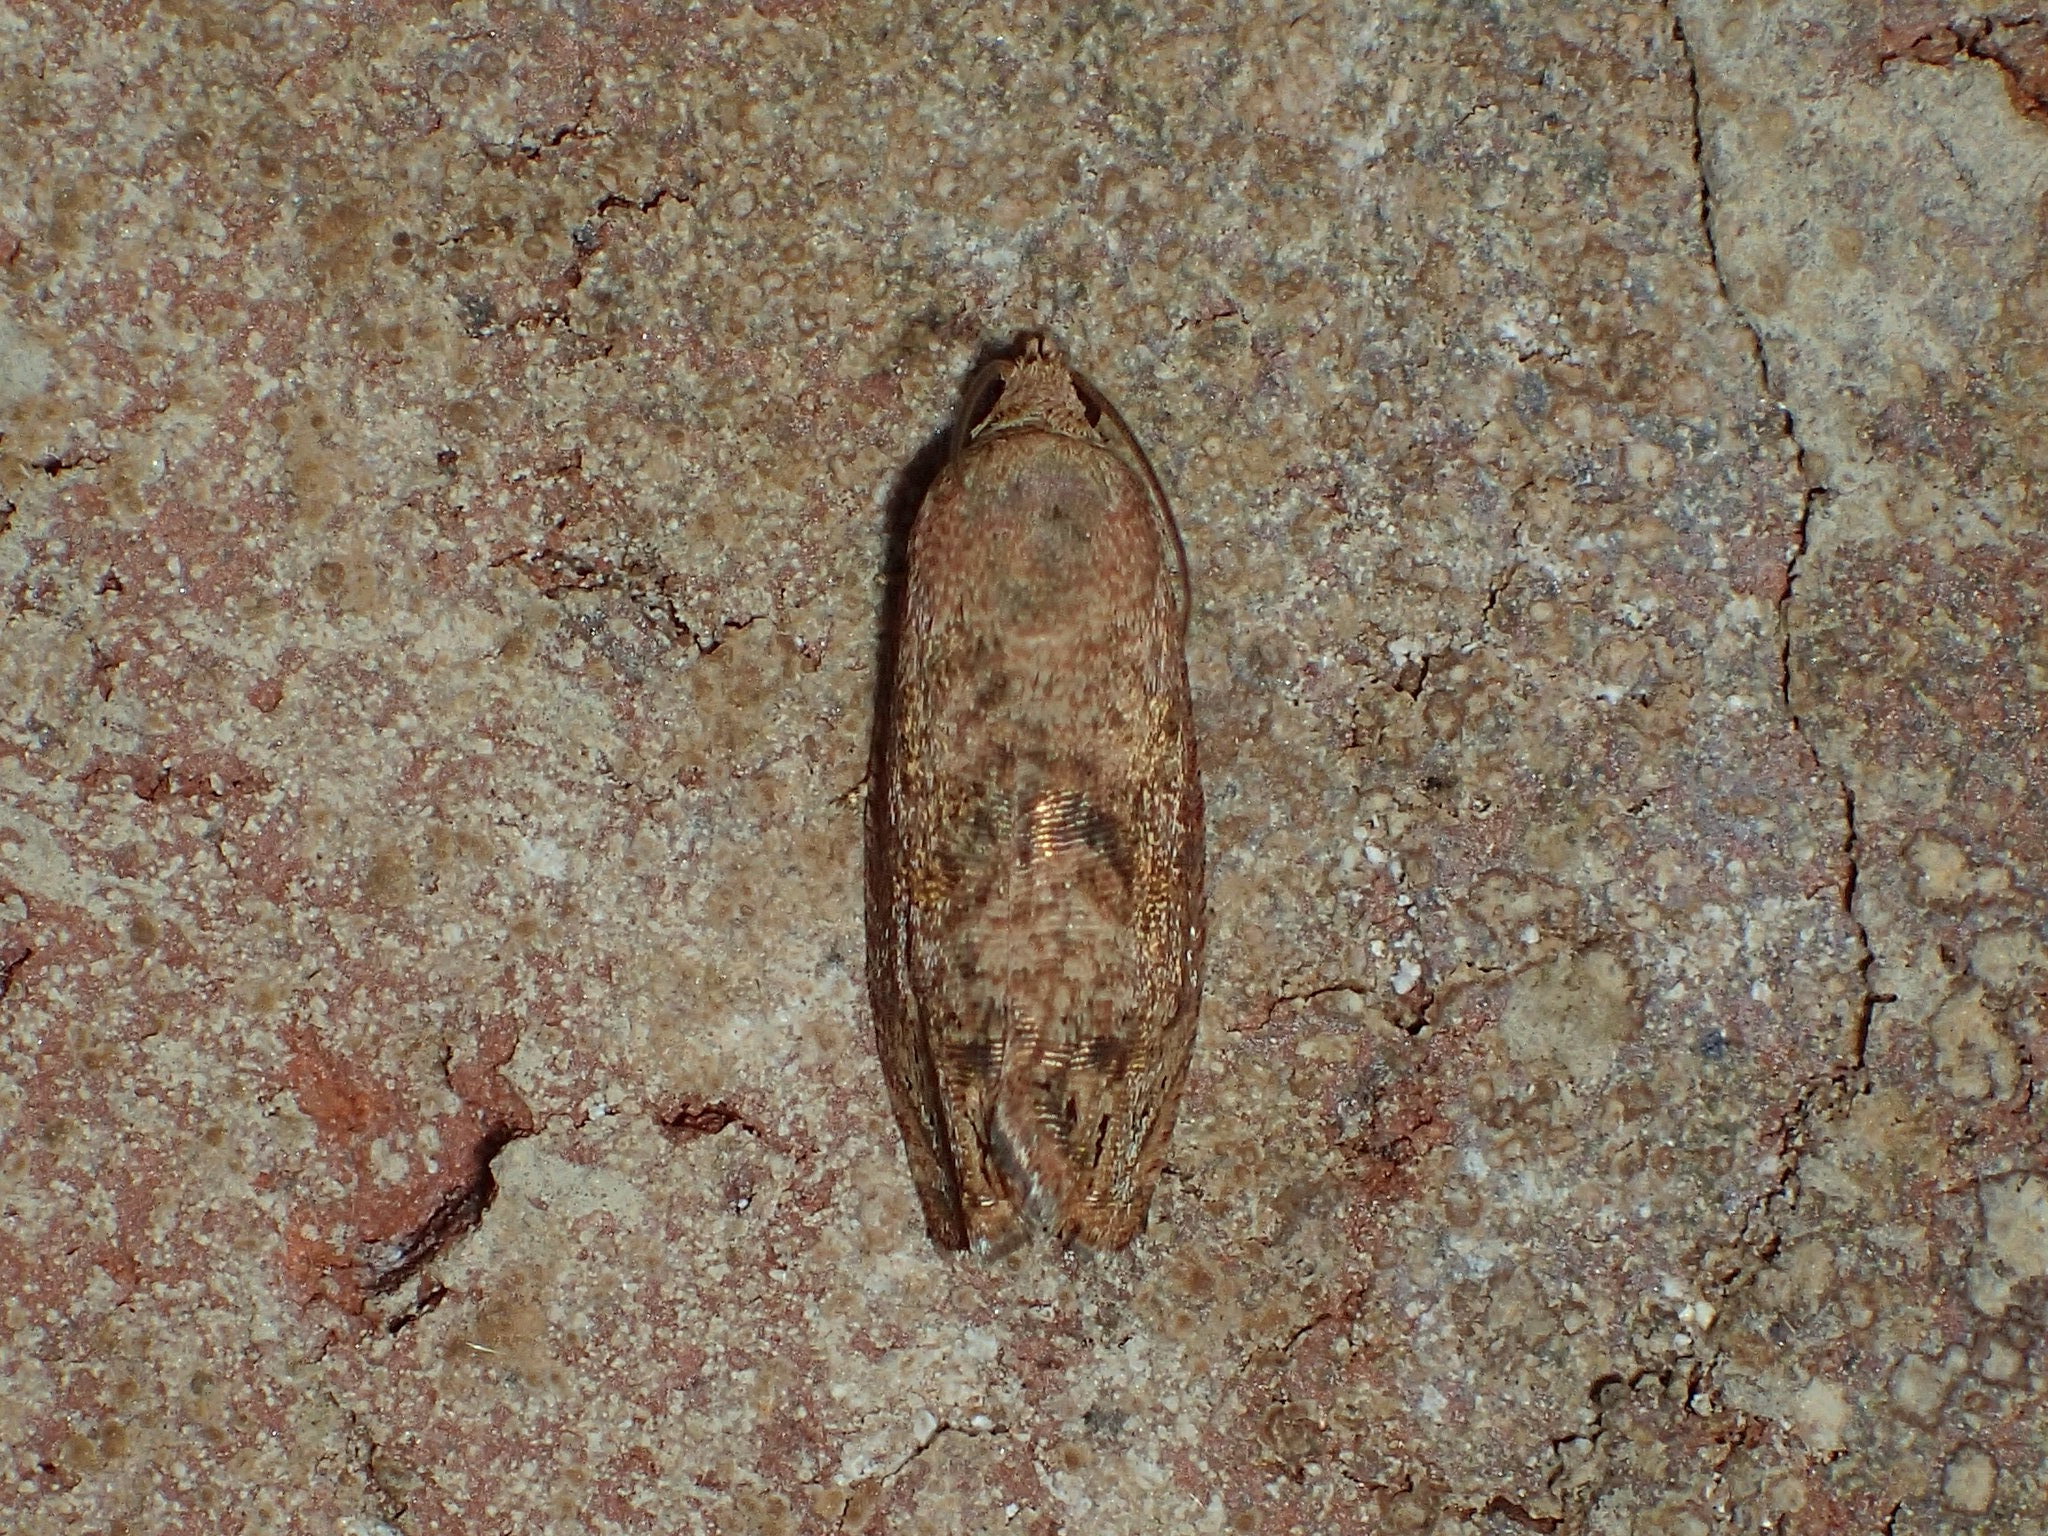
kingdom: Animalia
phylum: Arthropoda
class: Insecta
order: Lepidoptera
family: Tortricidae
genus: Cydia
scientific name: Cydia latiferreana
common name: Filbertworm moth
